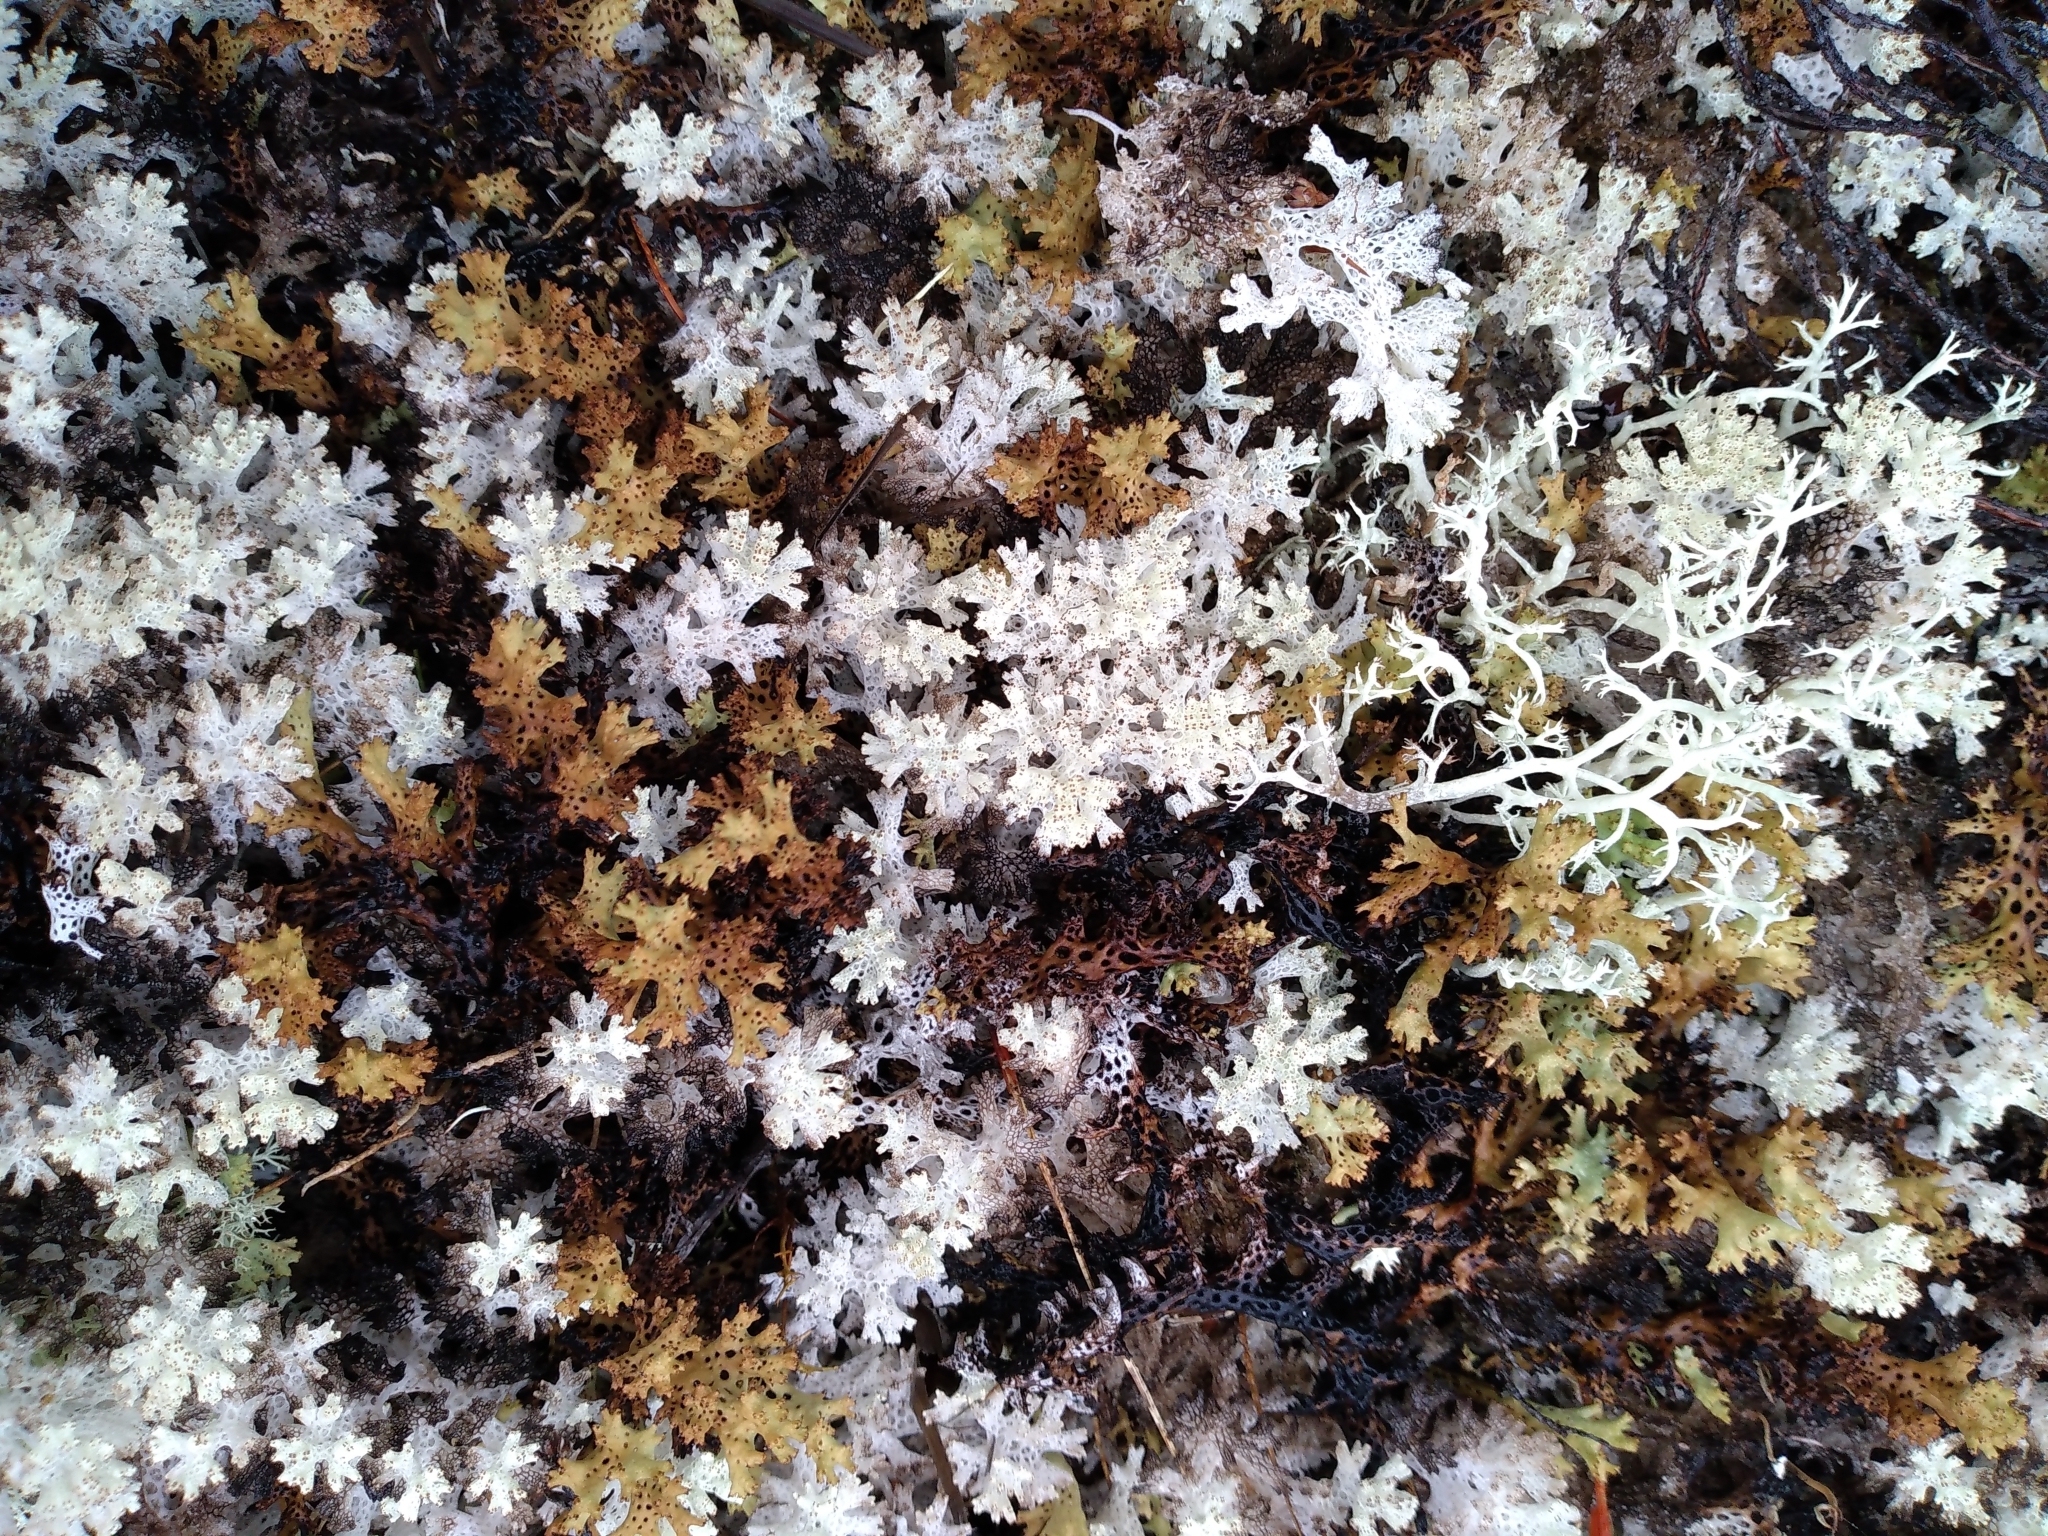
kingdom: Fungi
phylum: Ascomycota
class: Lecanoromycetes
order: Lecanorales
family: Cladoniaceae
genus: Pulchrocladia
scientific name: Pulchrocladia retipora
